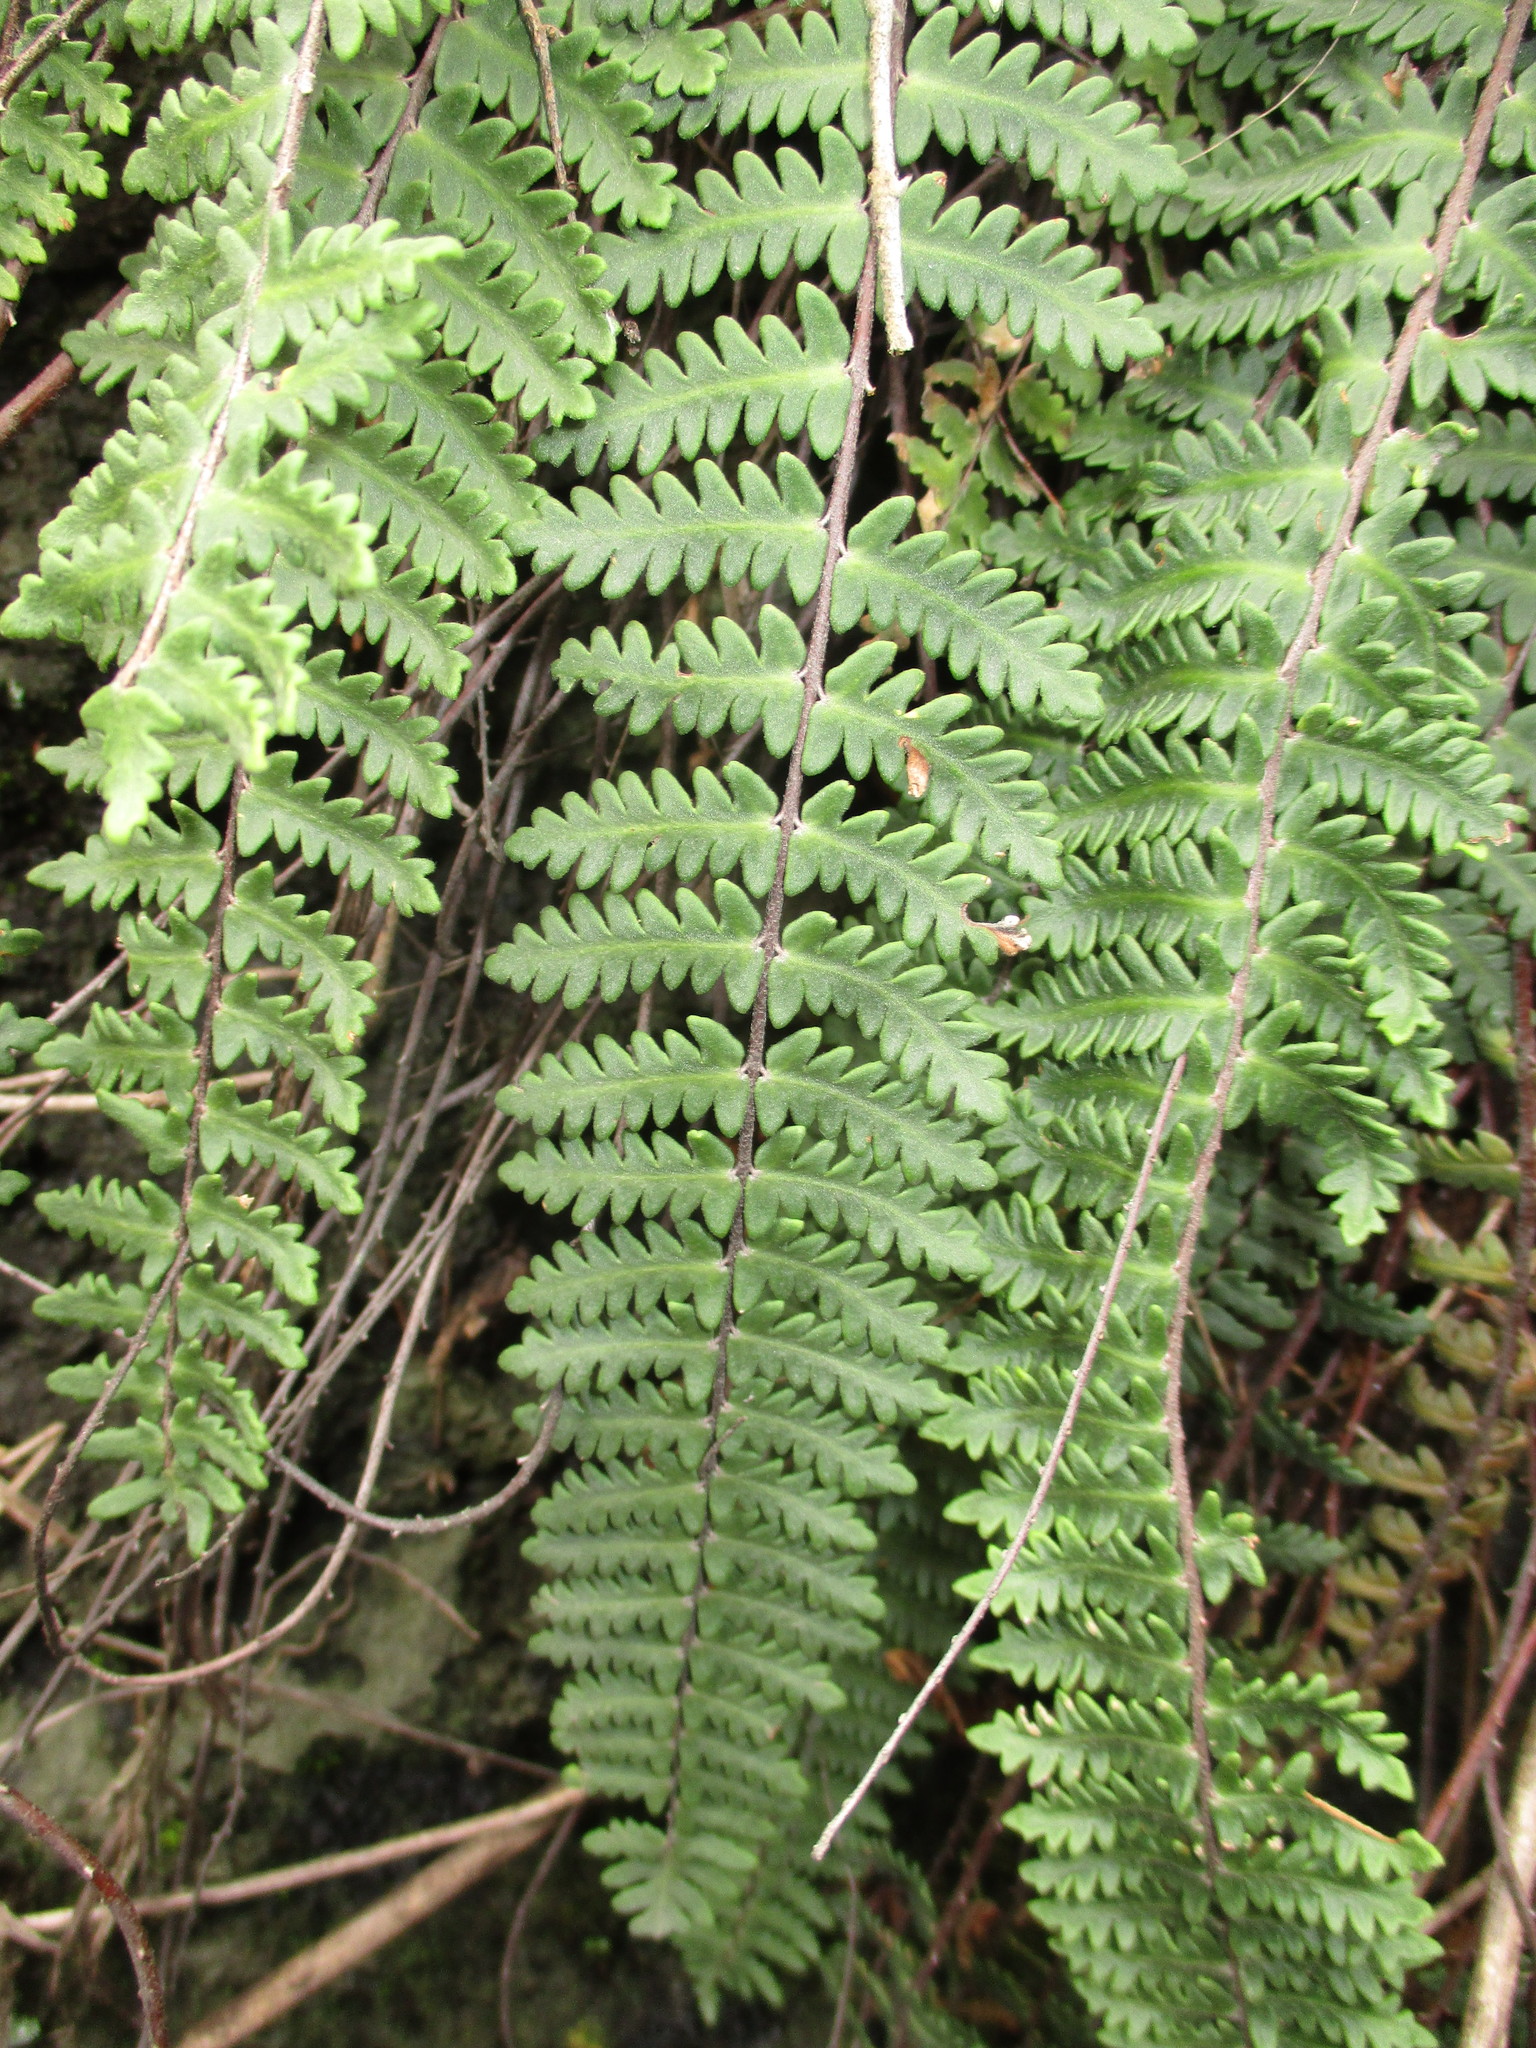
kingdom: Plantae
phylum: Tracheophyta
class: Polypodiopsida
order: Polypodiales
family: Pteridaceae
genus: Myriopteris
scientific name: Myriopteris aurea
